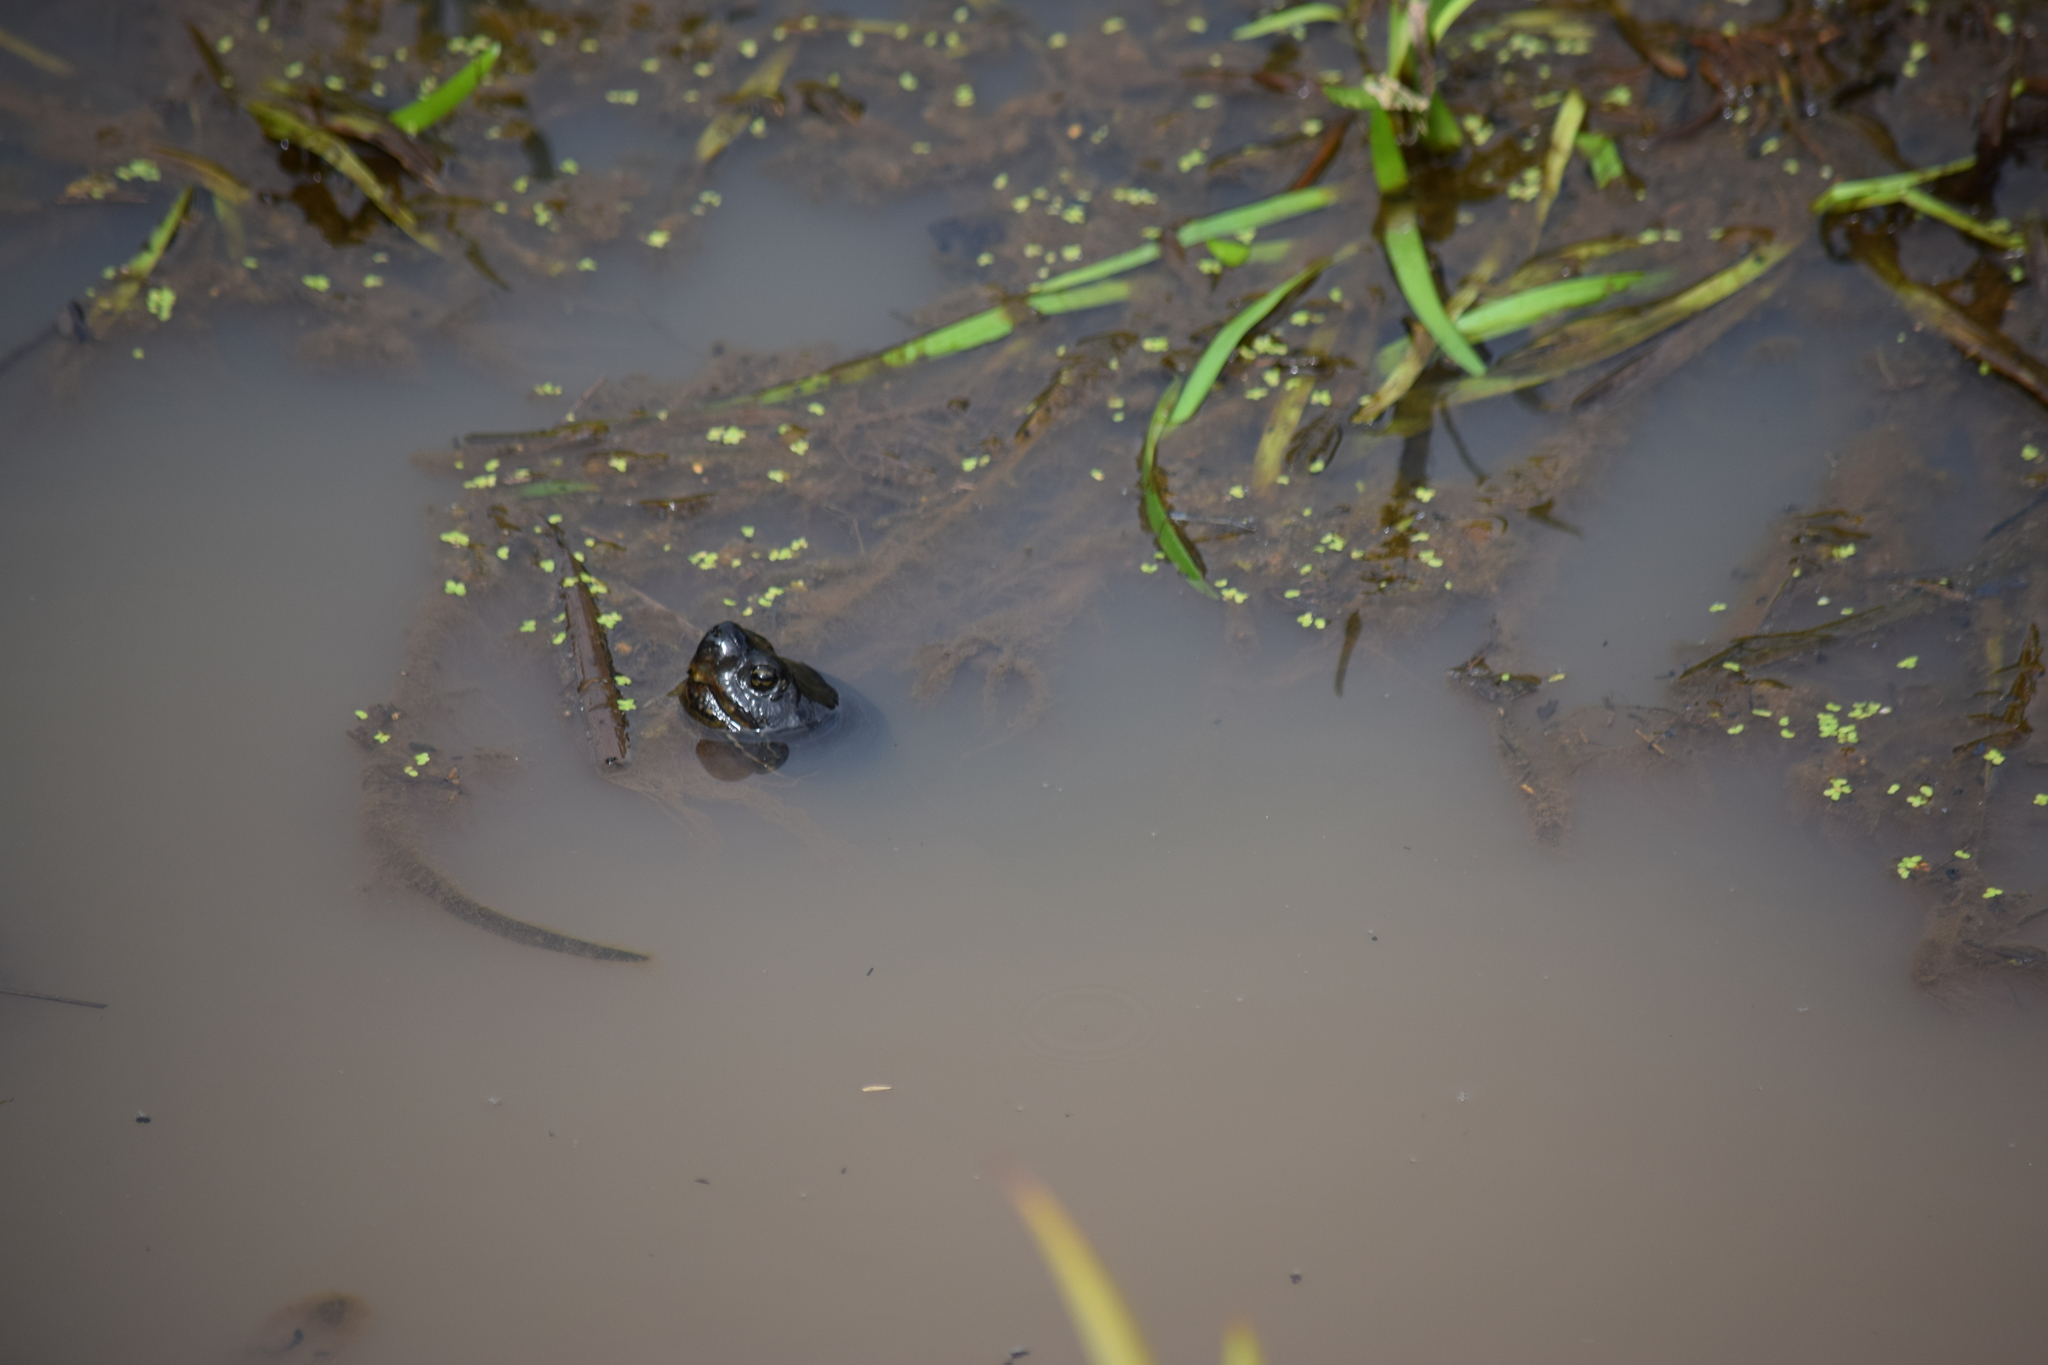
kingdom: Animalia
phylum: Chordata
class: Testudines
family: Emydidae
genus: Pseudemys
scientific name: Pseudemys rubriventris
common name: American red-bellied turtle
